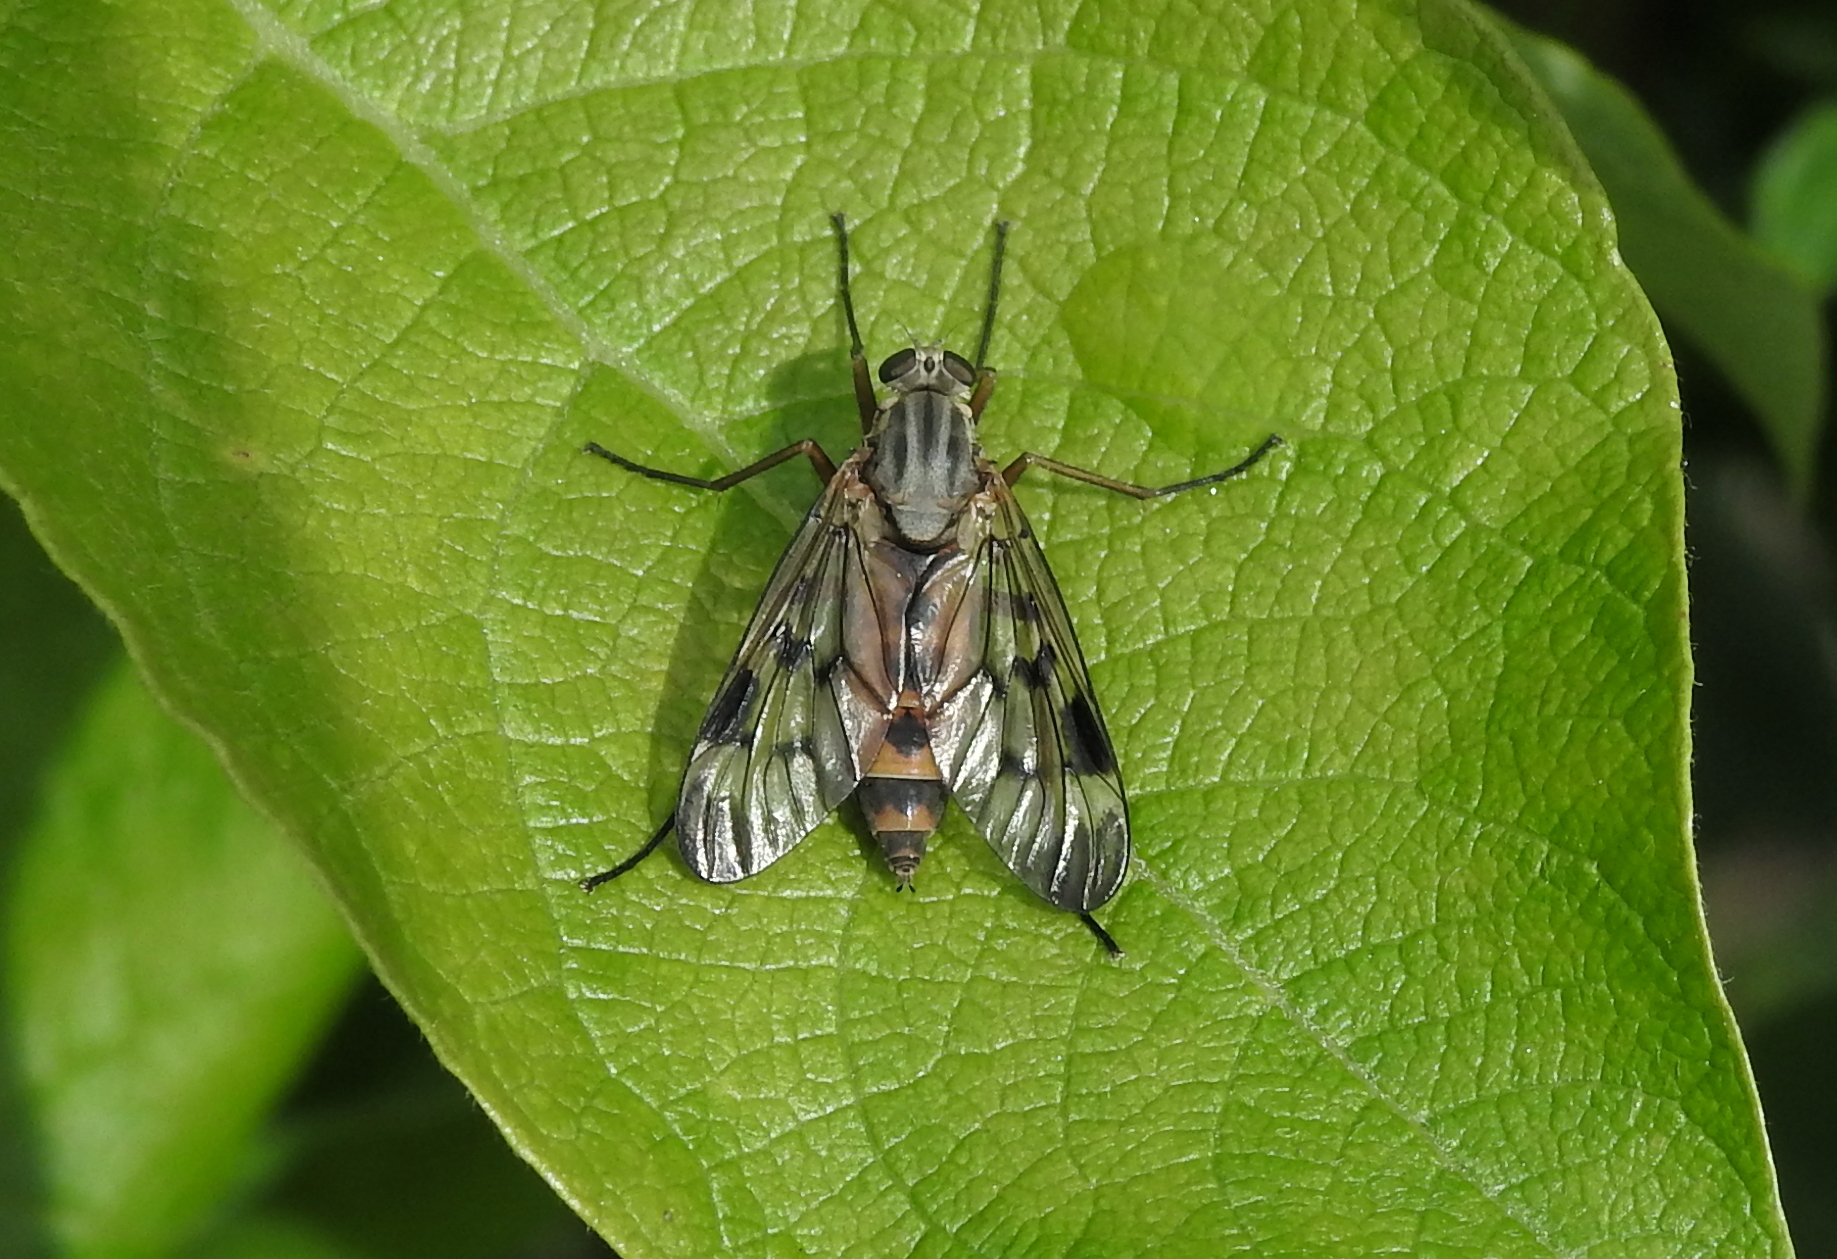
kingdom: Animalia
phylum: Arthropoda
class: Insecta
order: Diptera
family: Rhagionidae
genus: Rhagio
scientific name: Rhagio scolopacea
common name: Downlooker snipefly
